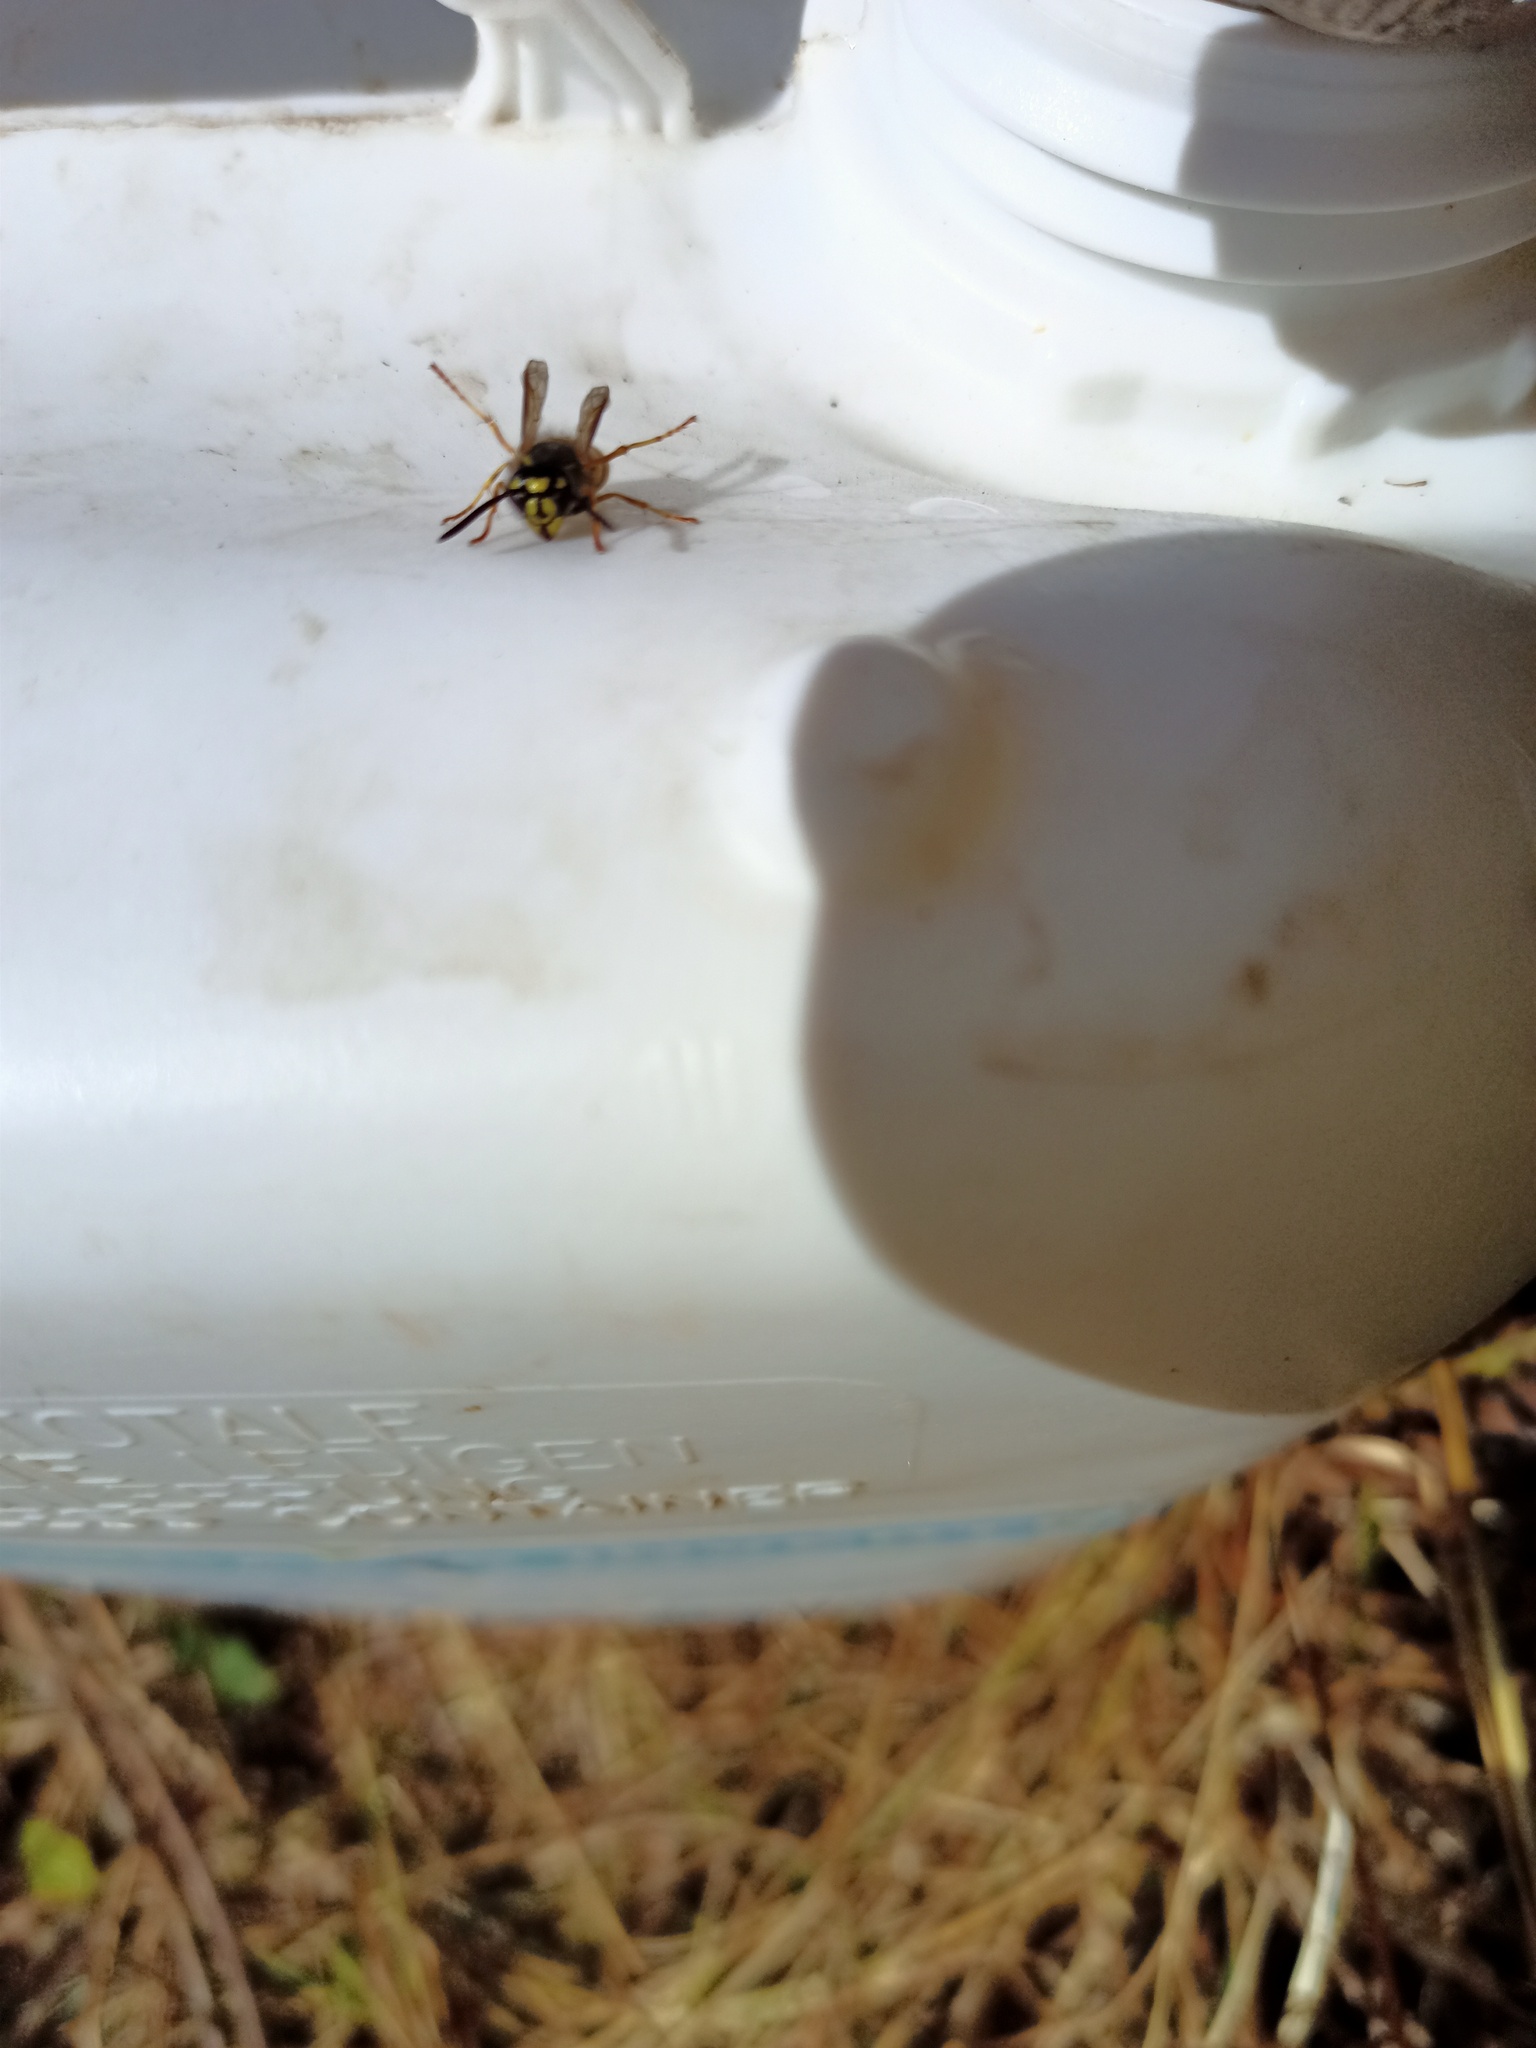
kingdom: Animalia
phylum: Arthropoda
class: Insecta
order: Hymenoptera
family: Vespidae
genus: Vespula
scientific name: Vespula vulgaris
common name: Common wasp
